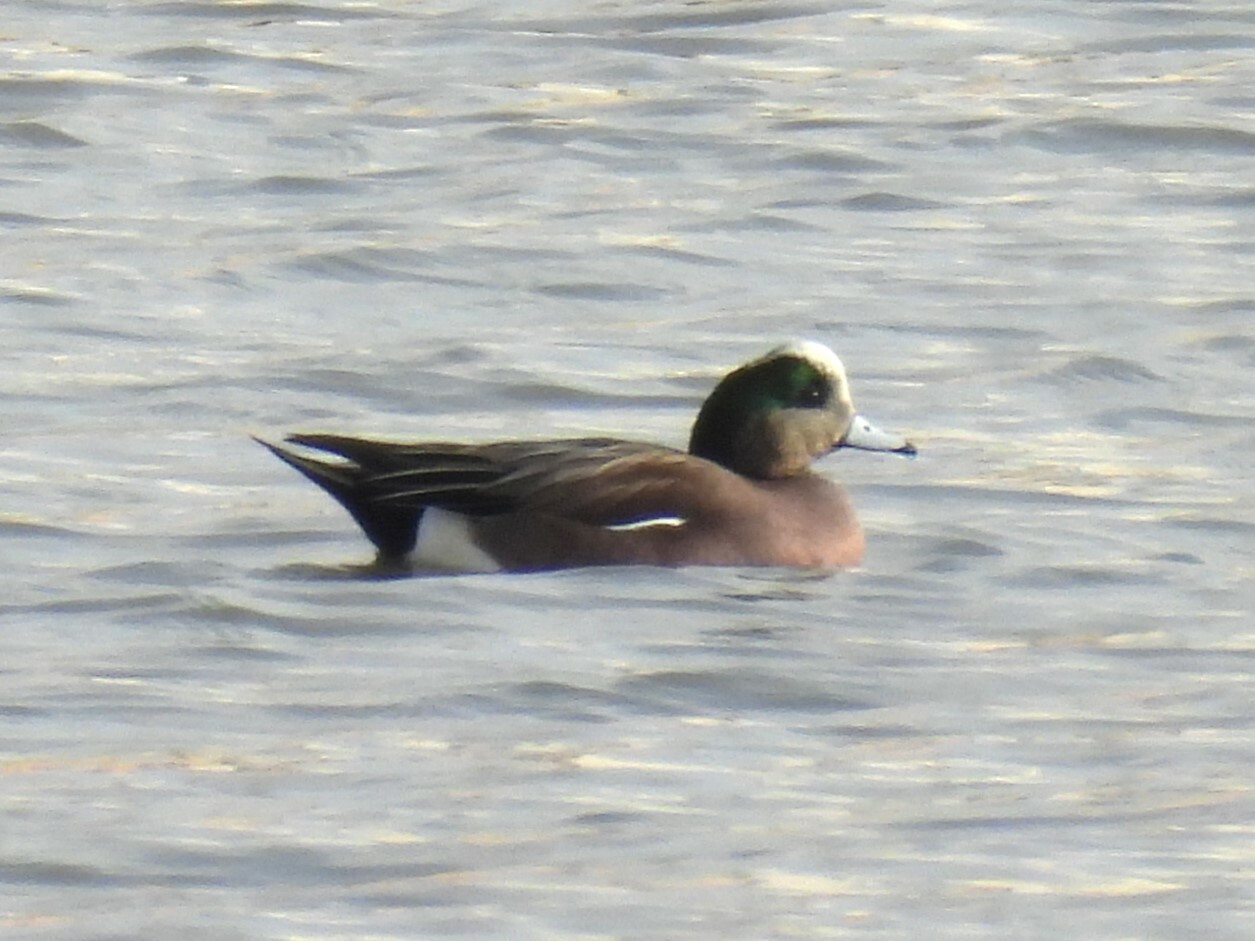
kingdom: Animalia
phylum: Chordata
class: Aves
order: Anseriformes
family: Anatidae
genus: Mareca
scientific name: Mareca americana
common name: American wigeon
